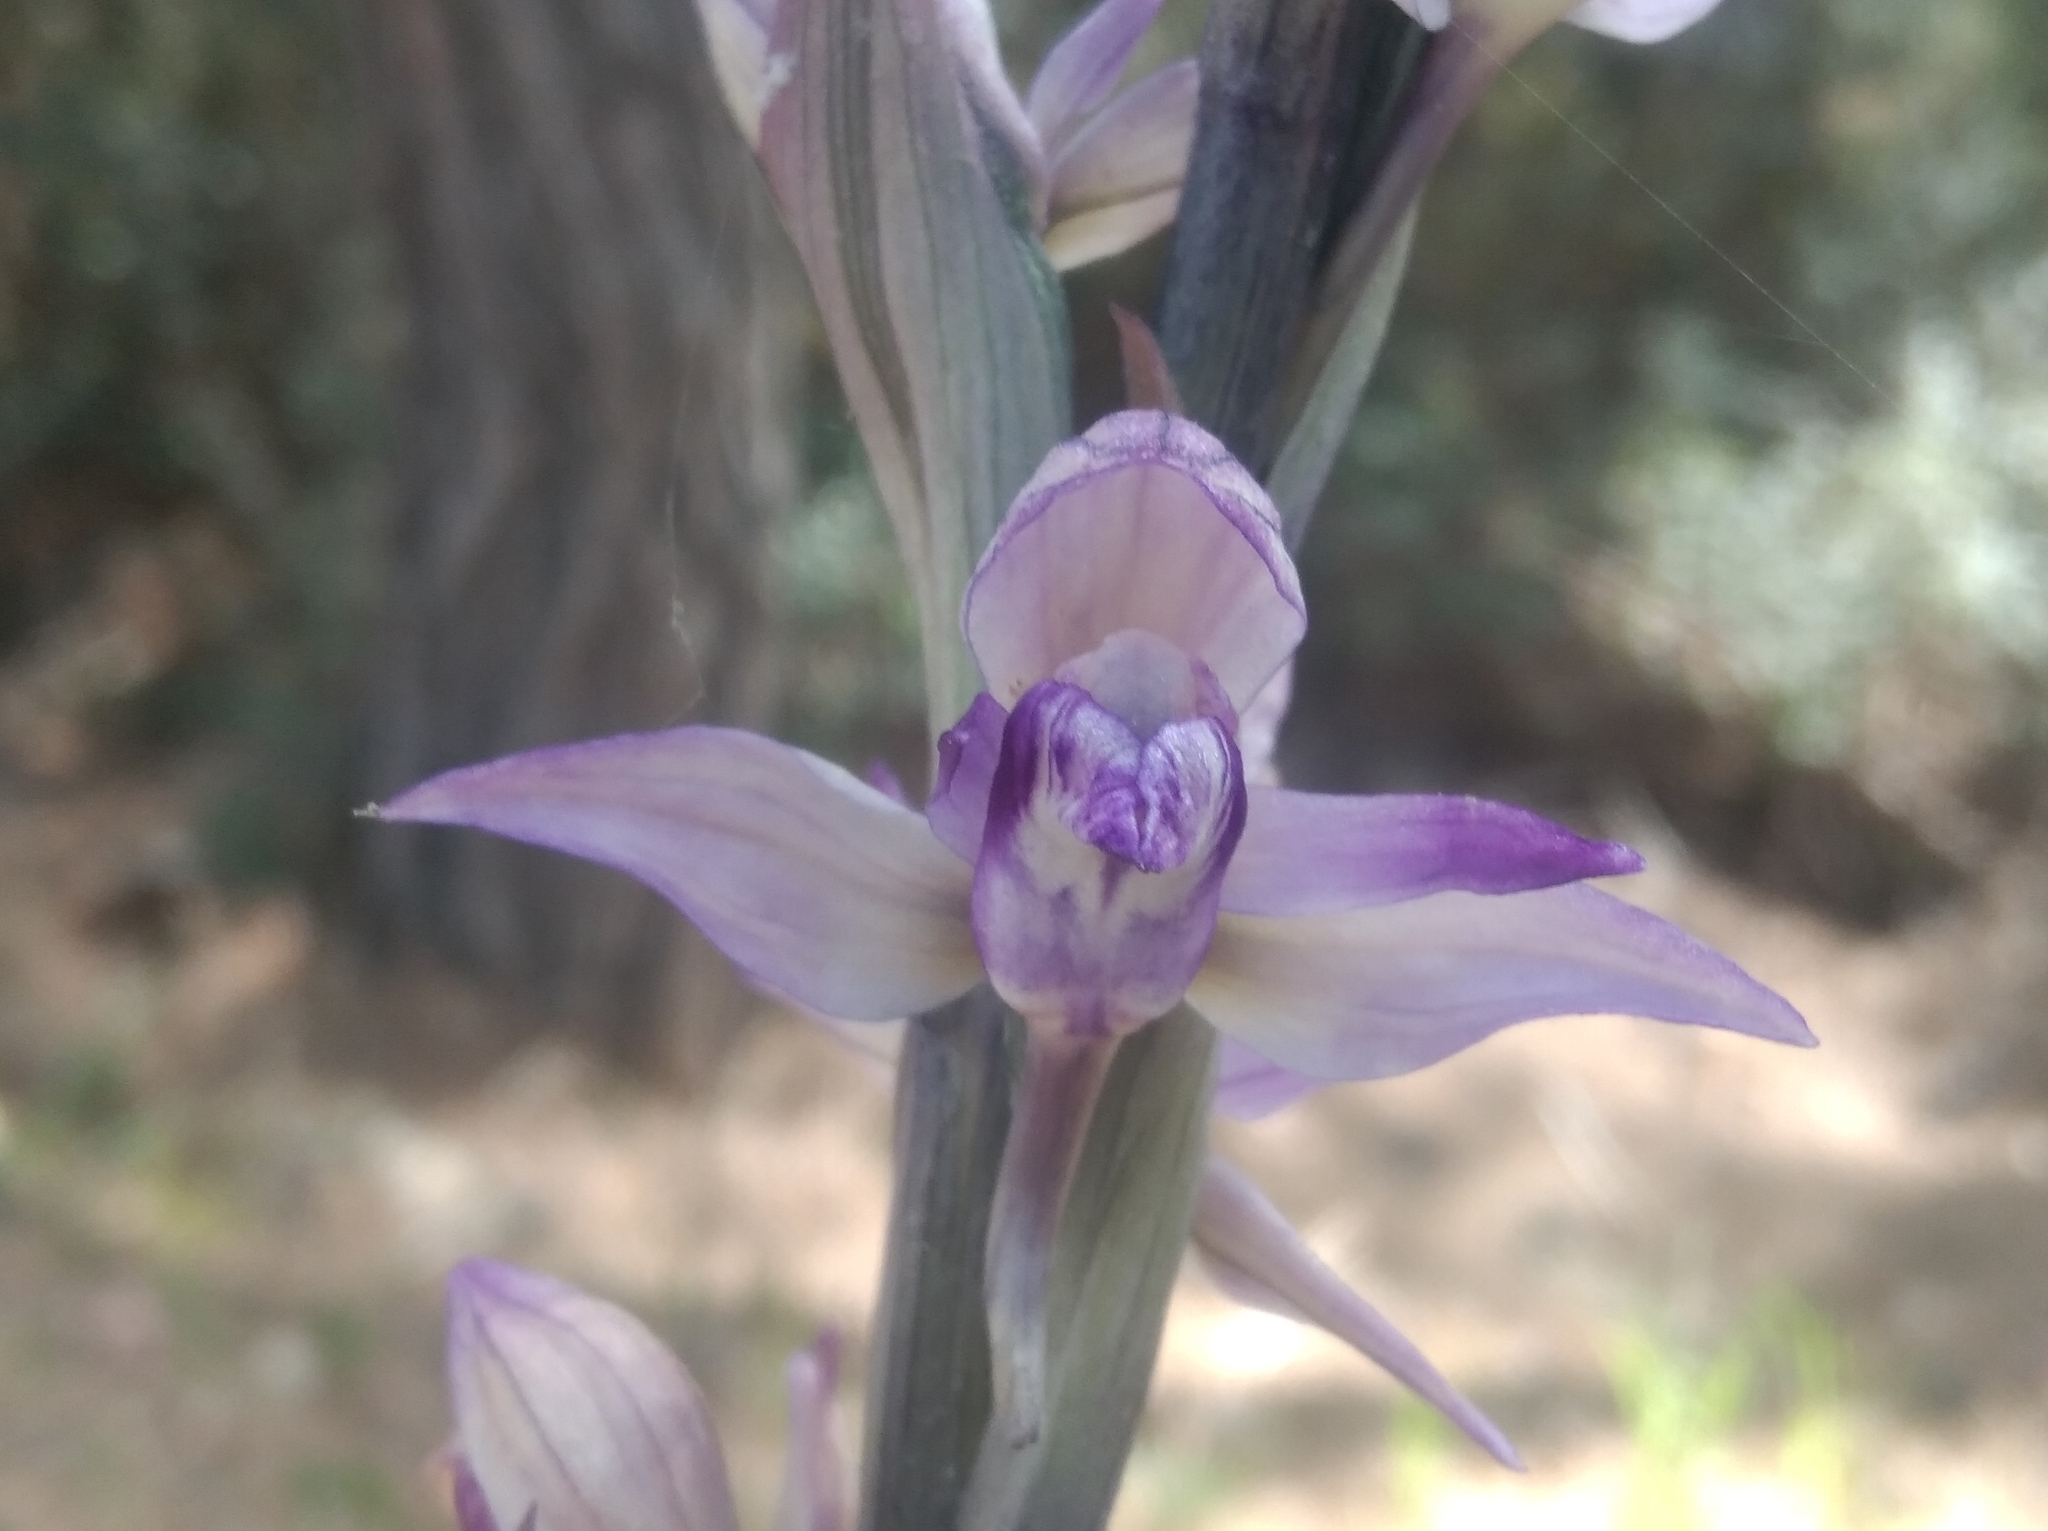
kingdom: Plantae
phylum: Tracheophyta
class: Liliopsida
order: Asparagales
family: Orchidaceae
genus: Limodorum
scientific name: Limodorum abortivum
